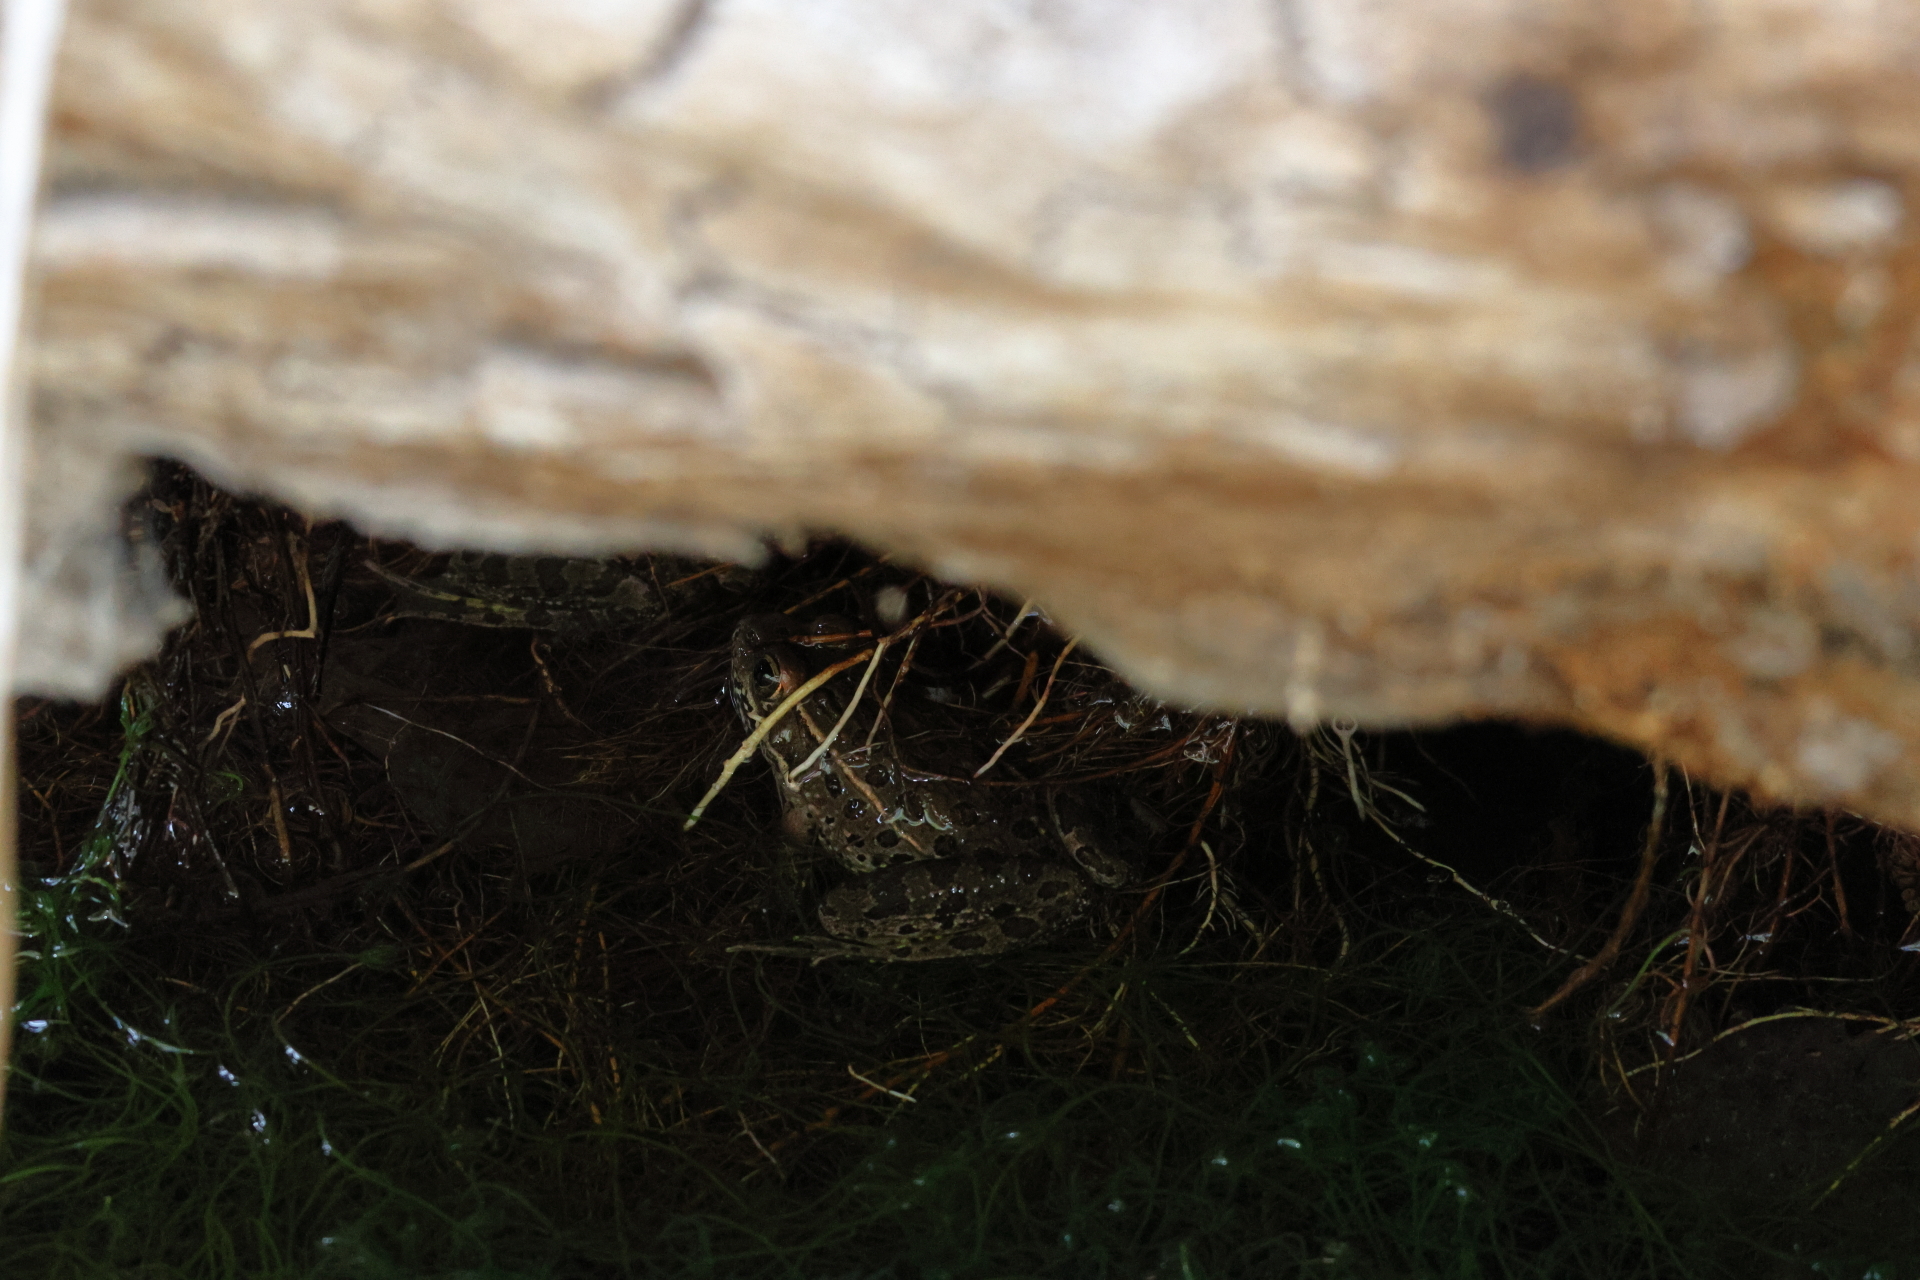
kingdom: Animalia
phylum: Chordata
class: Amphibia
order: Anura
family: Ranidae
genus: Lithobates
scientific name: Lithobates yavapaiensis
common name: Lowland leopard frog
